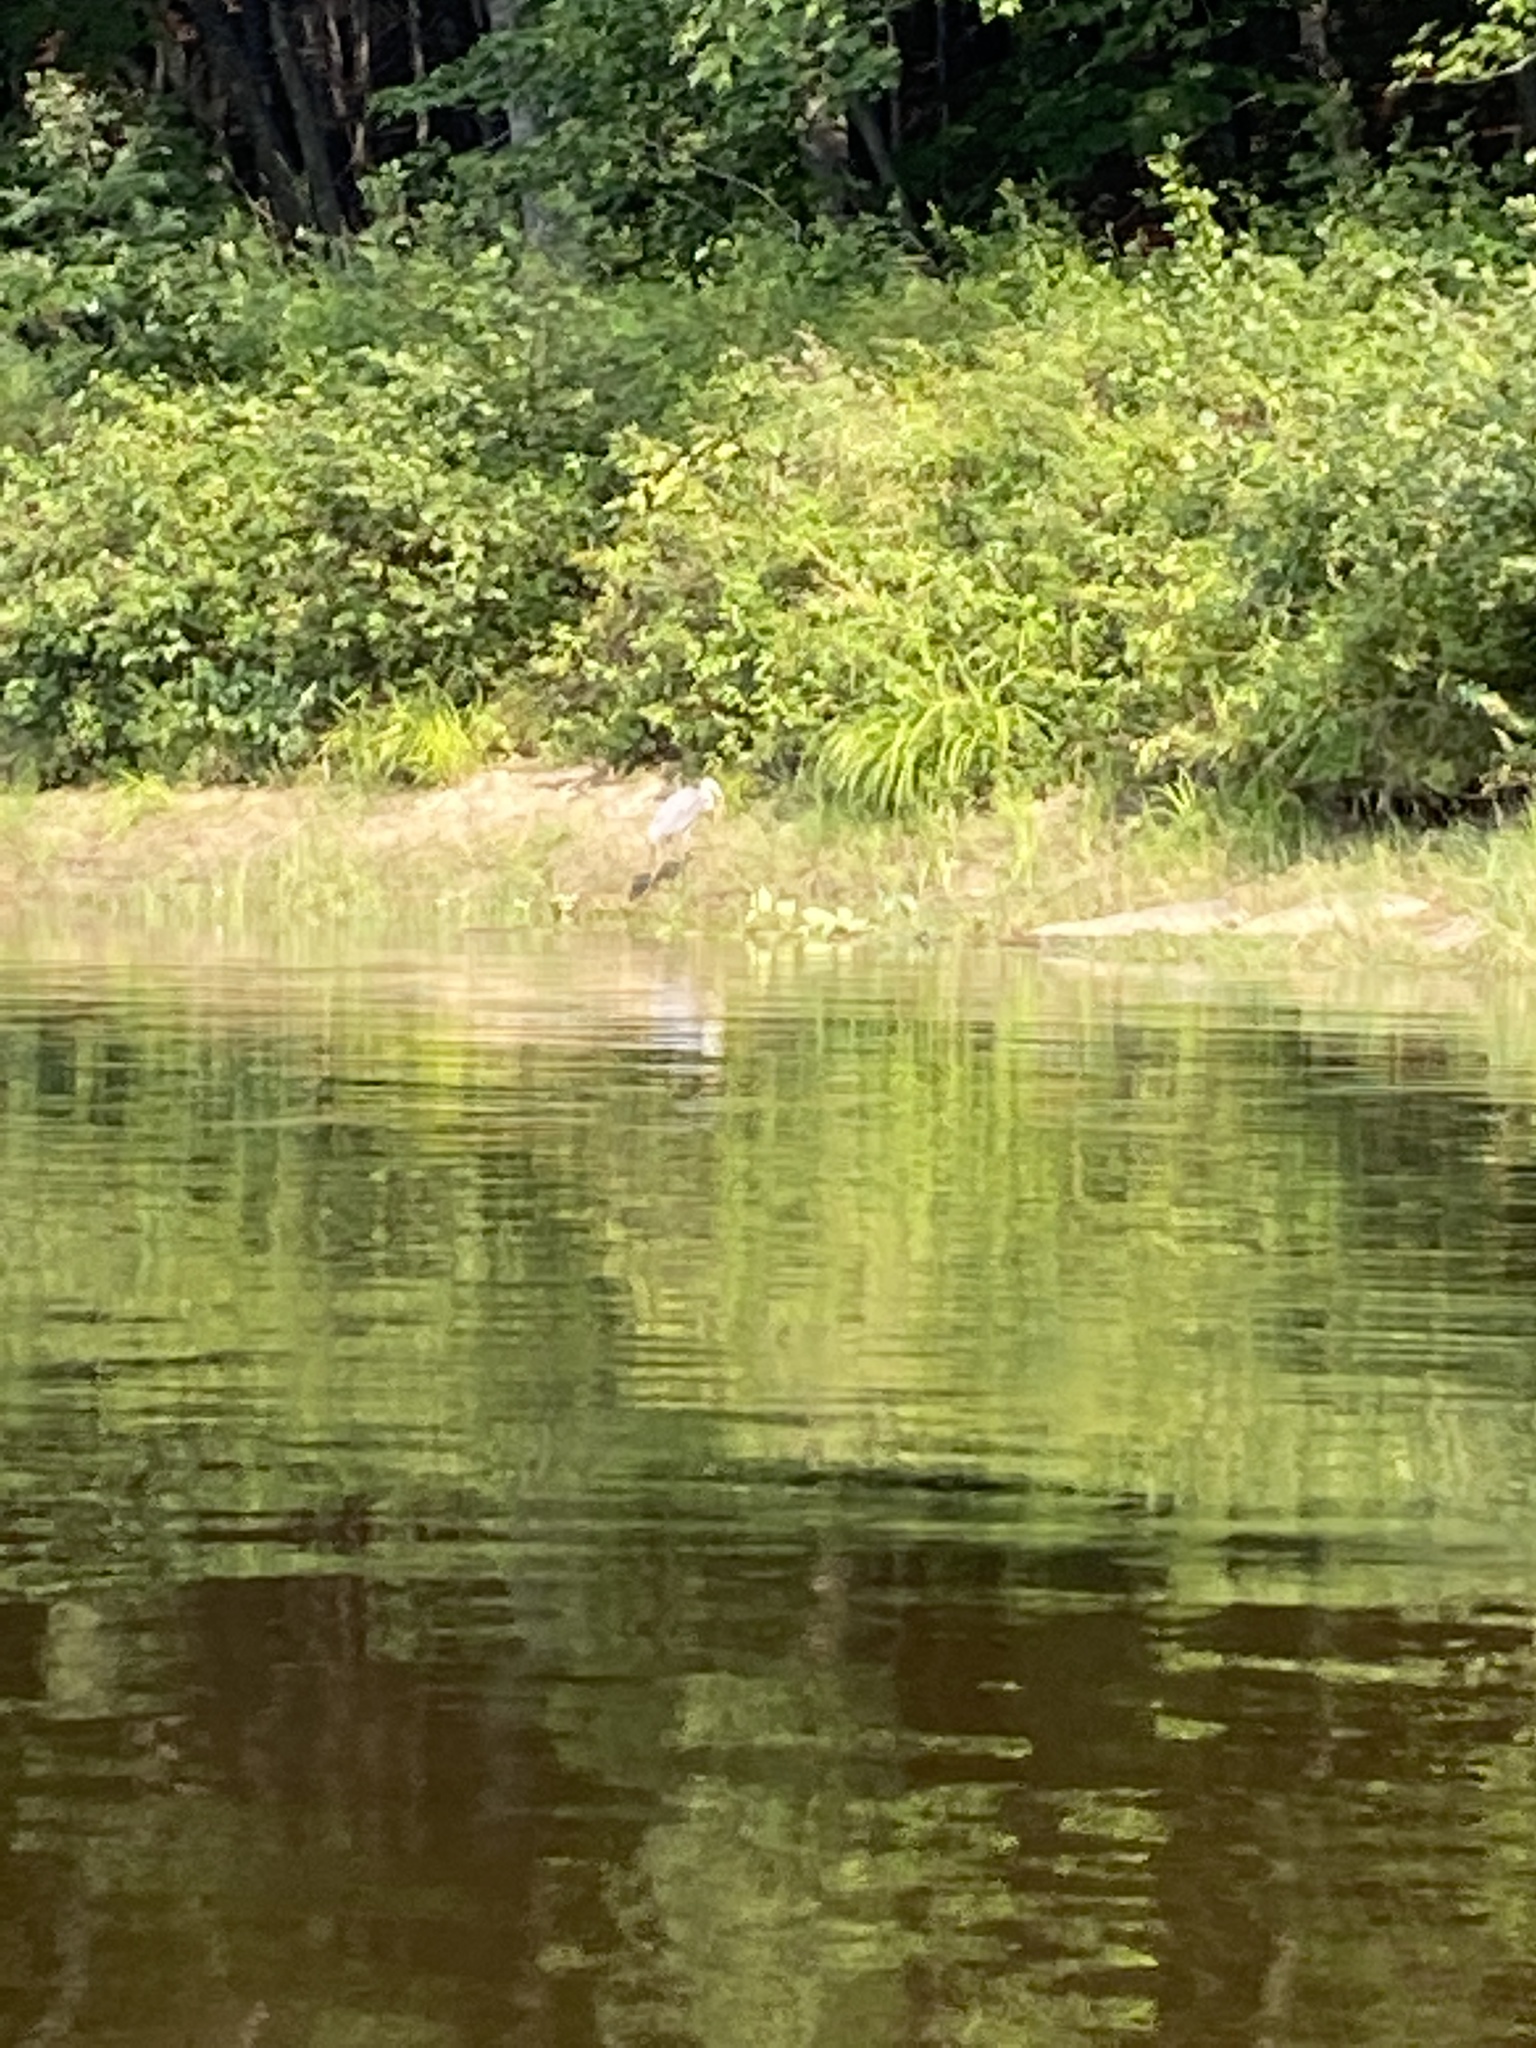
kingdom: Animalia
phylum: Chordata
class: Aves
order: Pelecaniformes
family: Ardeidae
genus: Ardea
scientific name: Ardea herodias
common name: Great blue heron
